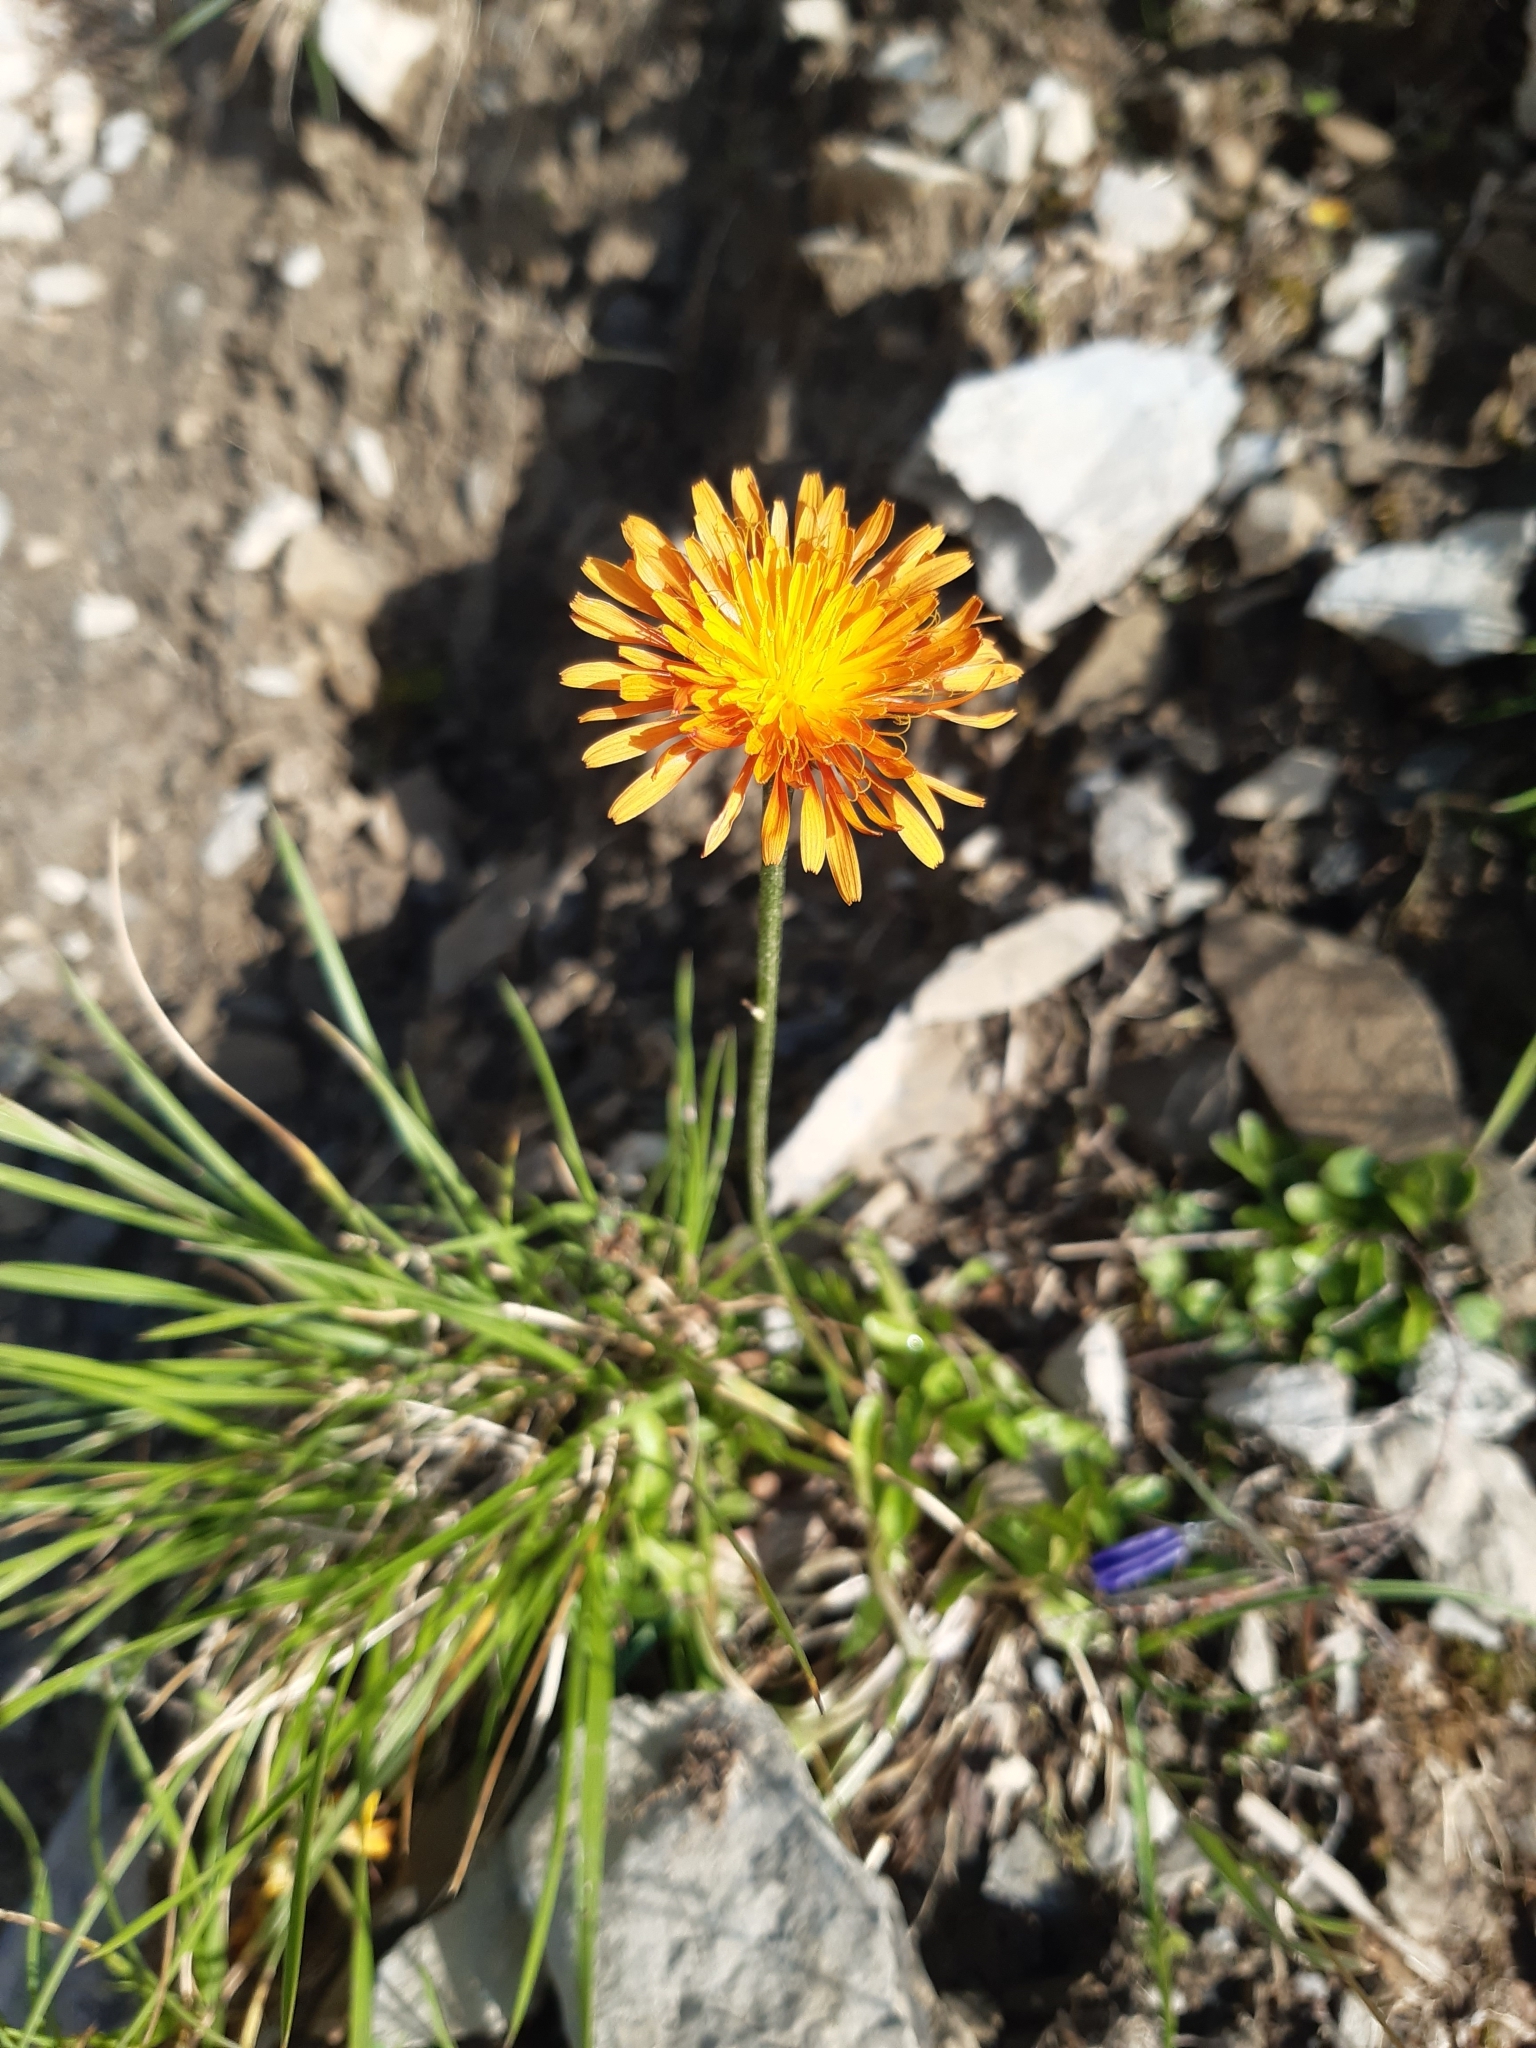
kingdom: Plantae
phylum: Tracheophyta
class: Magnoliopsida
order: Asterales
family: Asteraceae
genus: Crepis
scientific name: Crepis aurea
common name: Golden hawk's-beard
